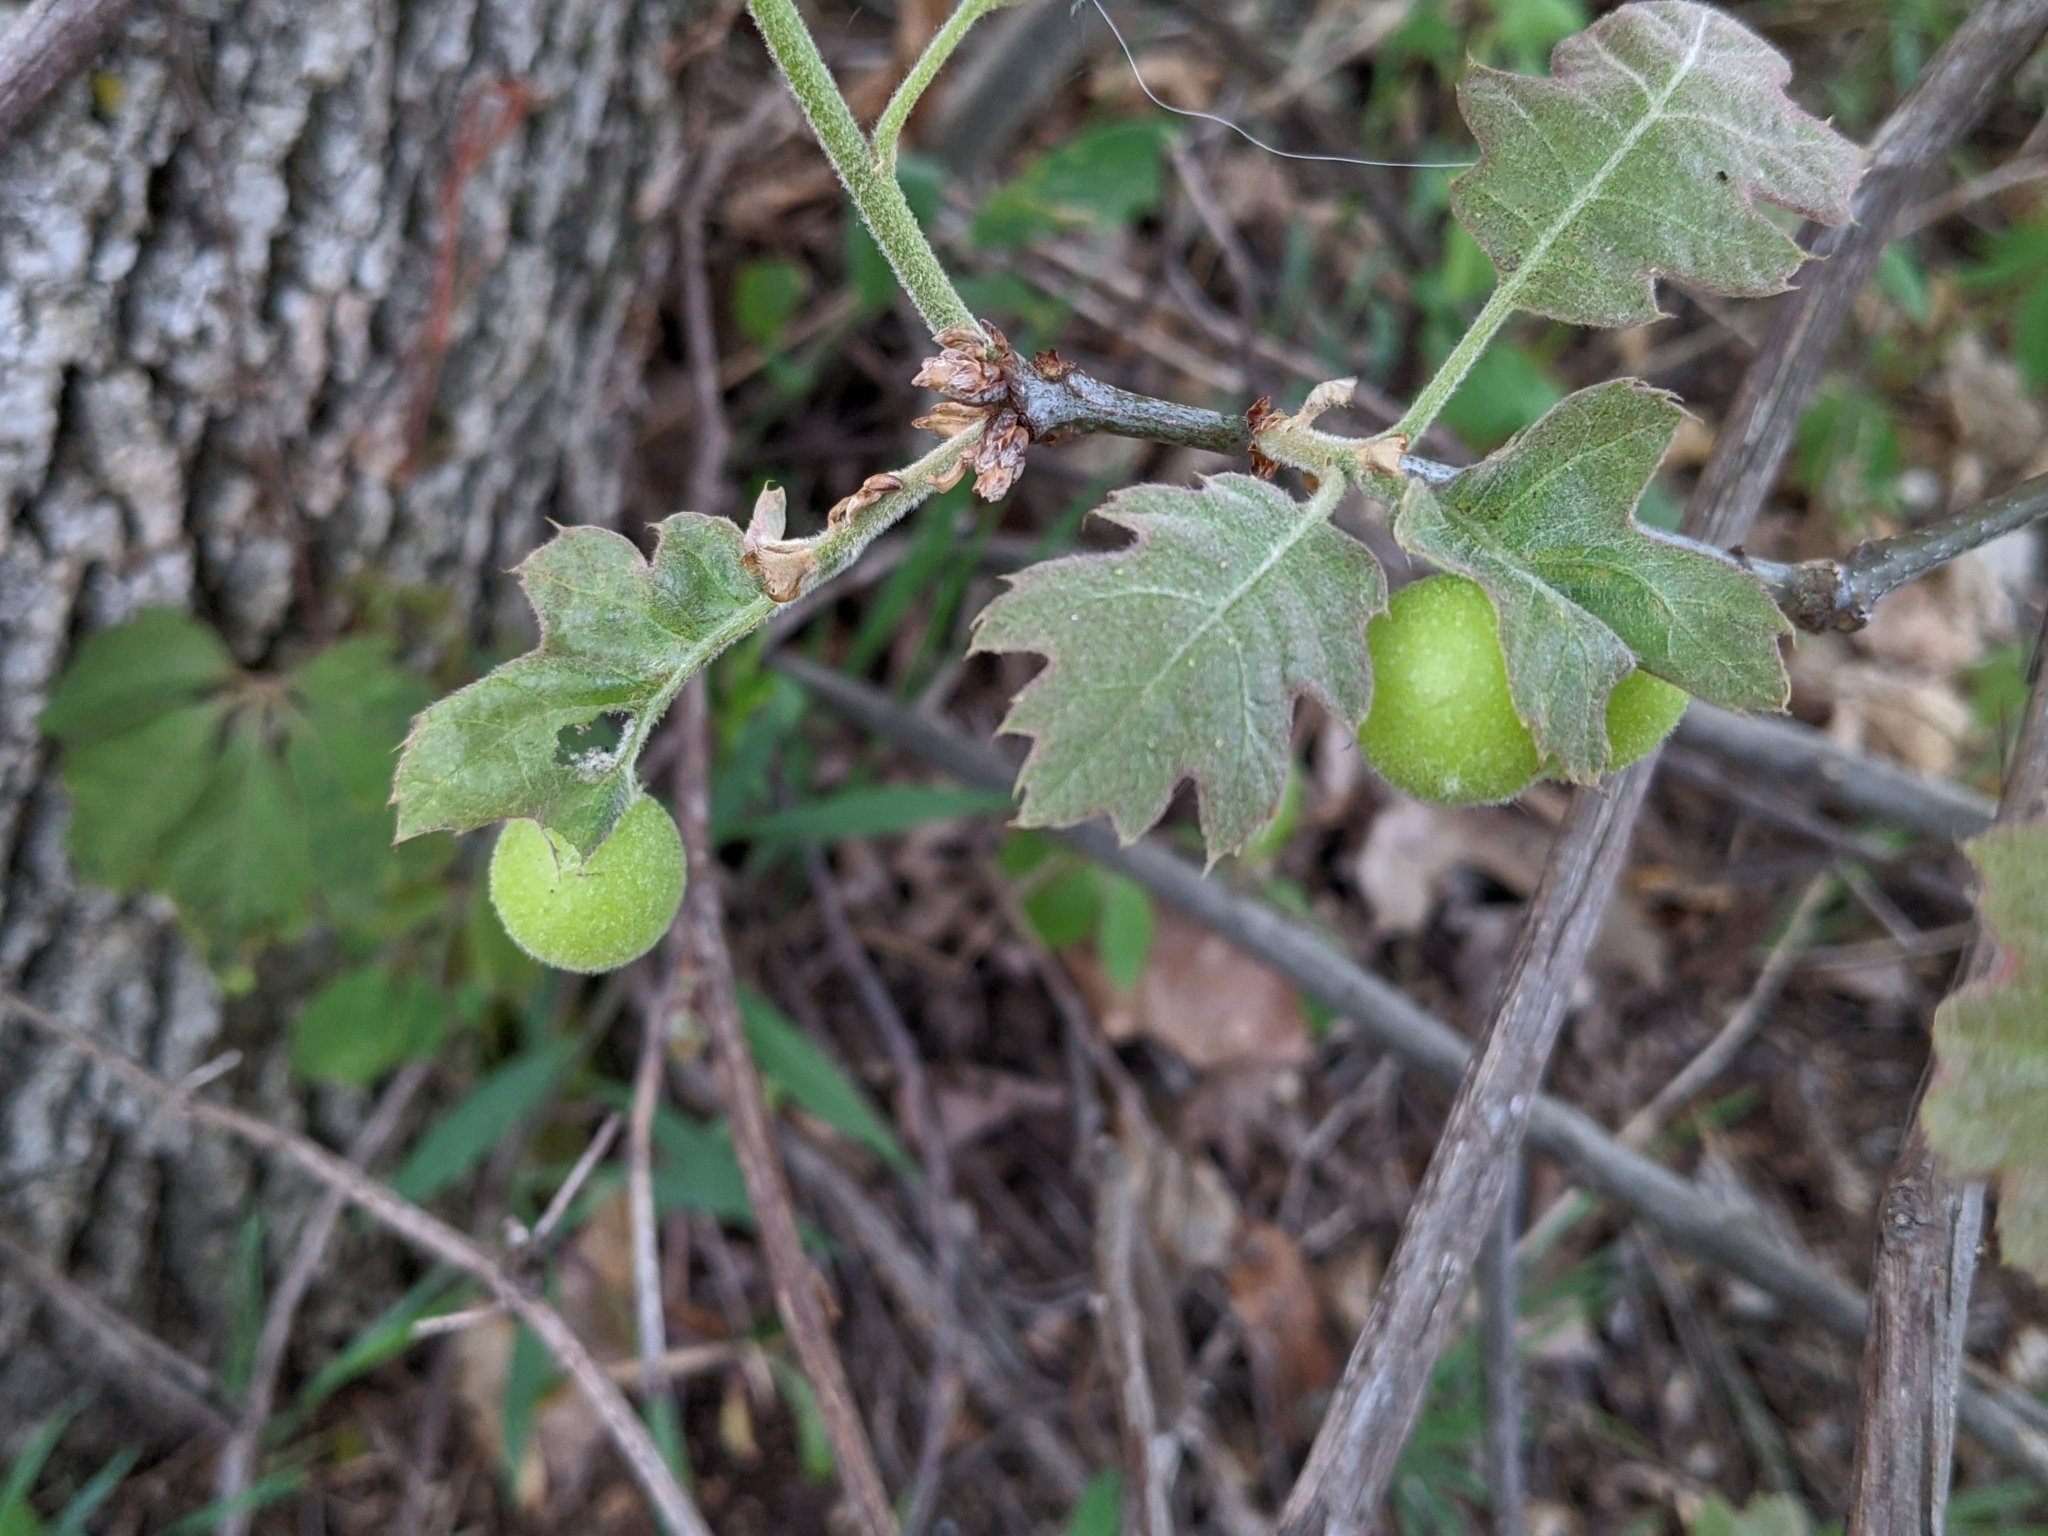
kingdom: Animalia
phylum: Arthropoda
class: Insecta
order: Hymenoptera
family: Cynipidae
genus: Amphibolips
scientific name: Amphibolips
